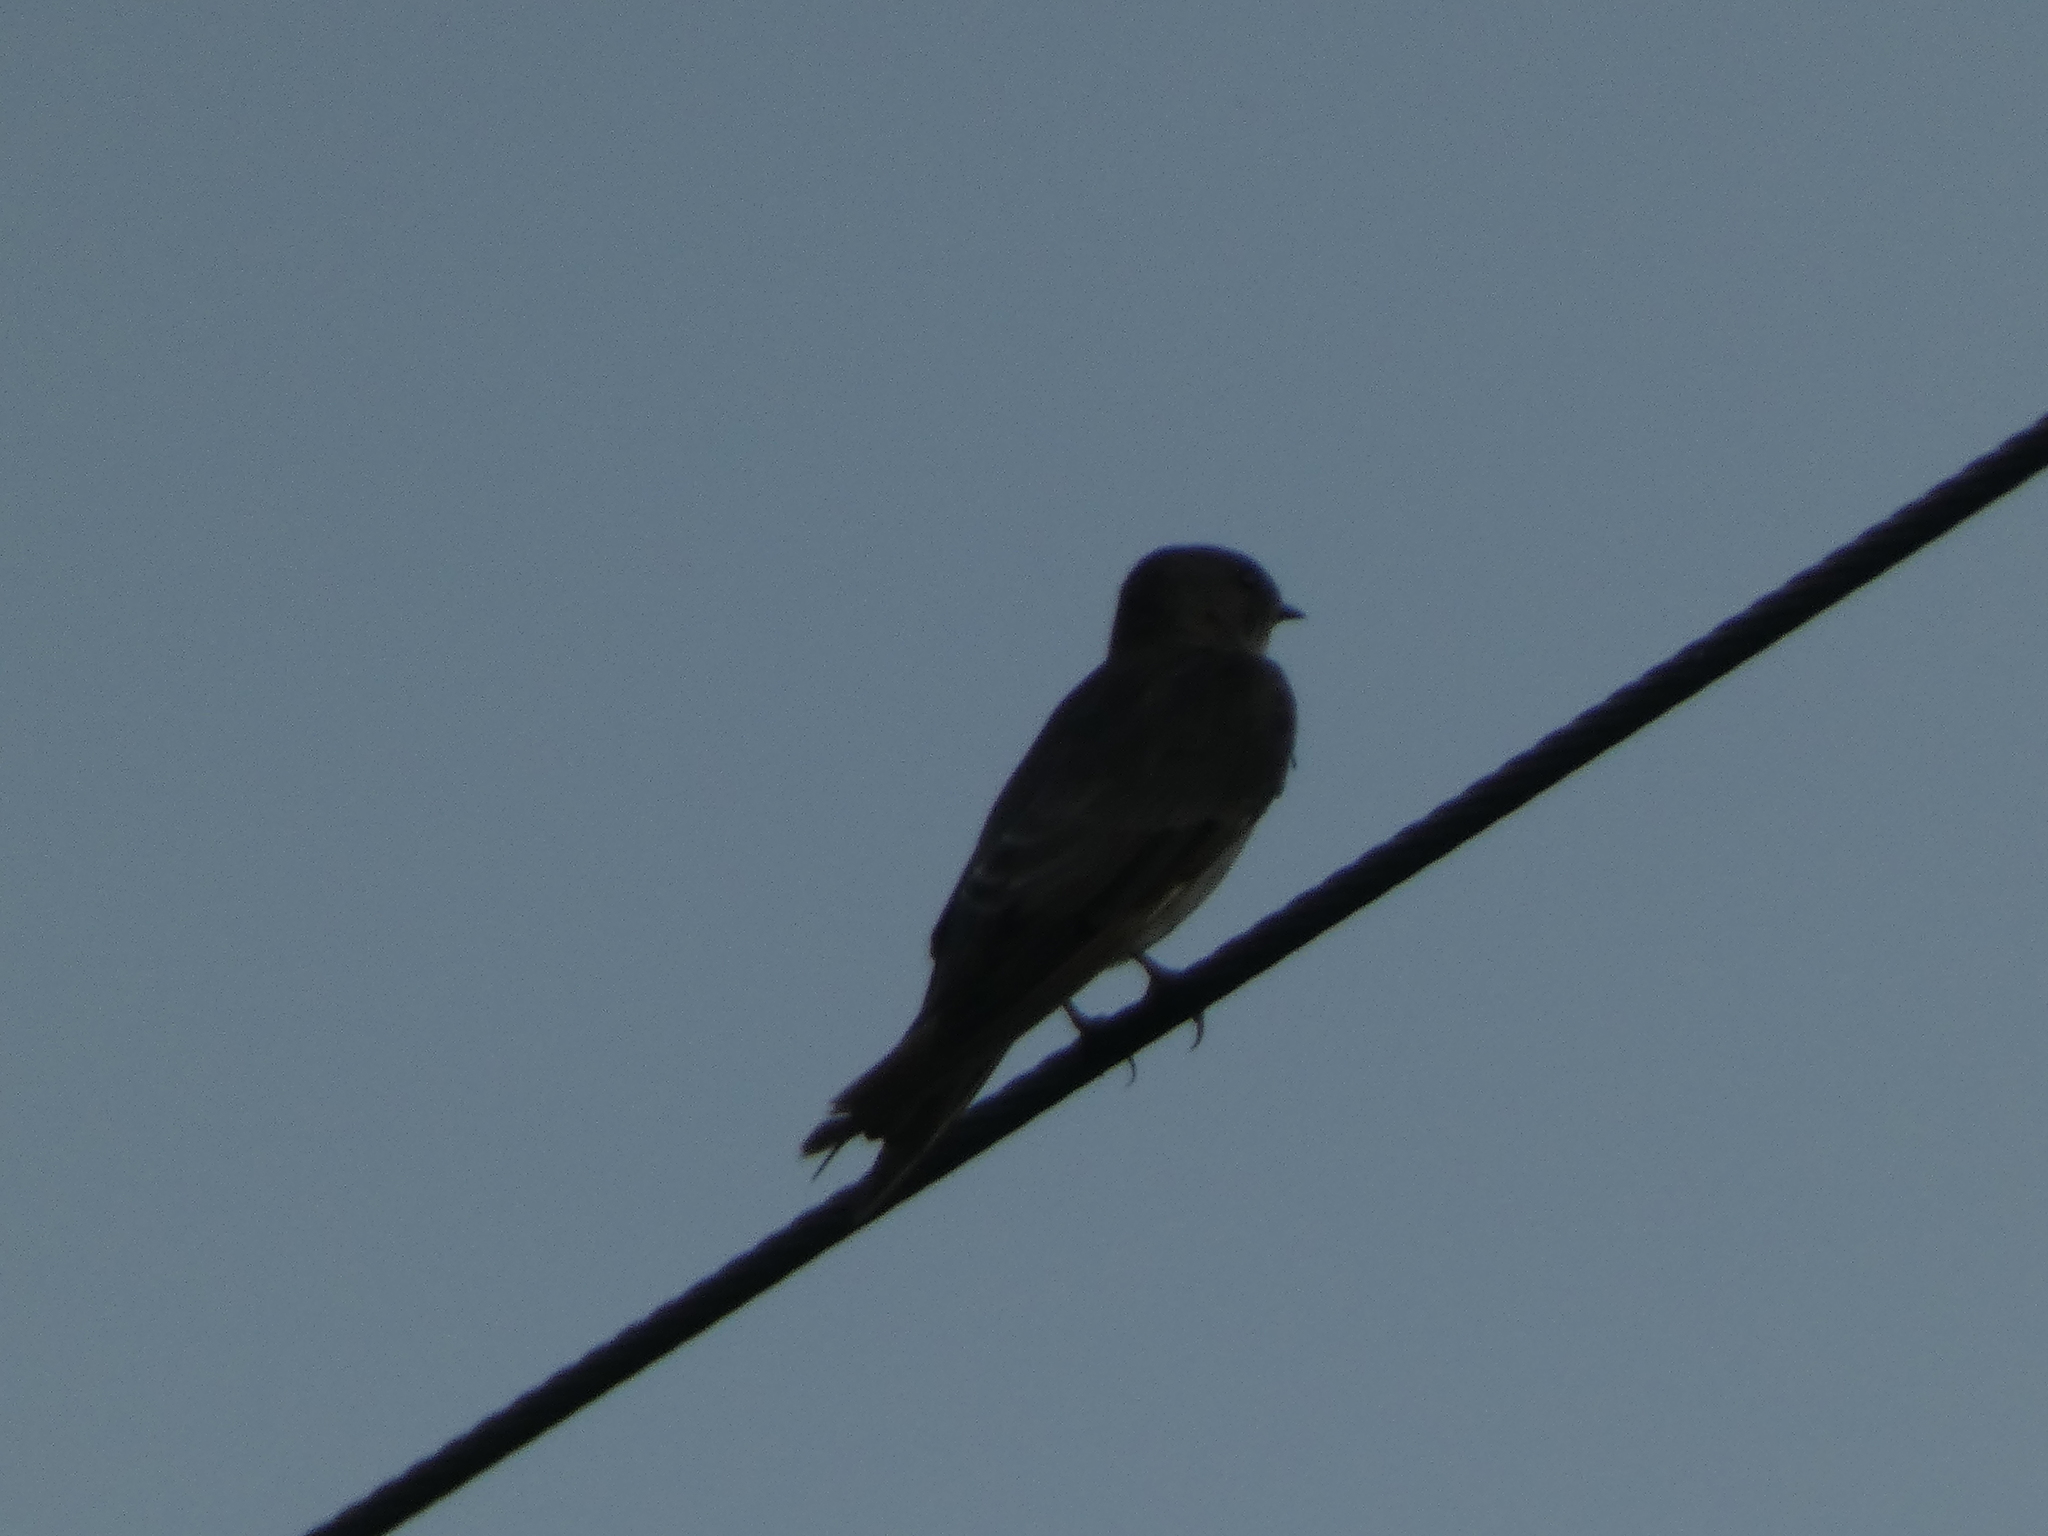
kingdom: Animalia
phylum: Chordata
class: Aves
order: Passeriformes
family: Hirundinidae
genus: Progne
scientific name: Progne subis
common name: Purple martin
